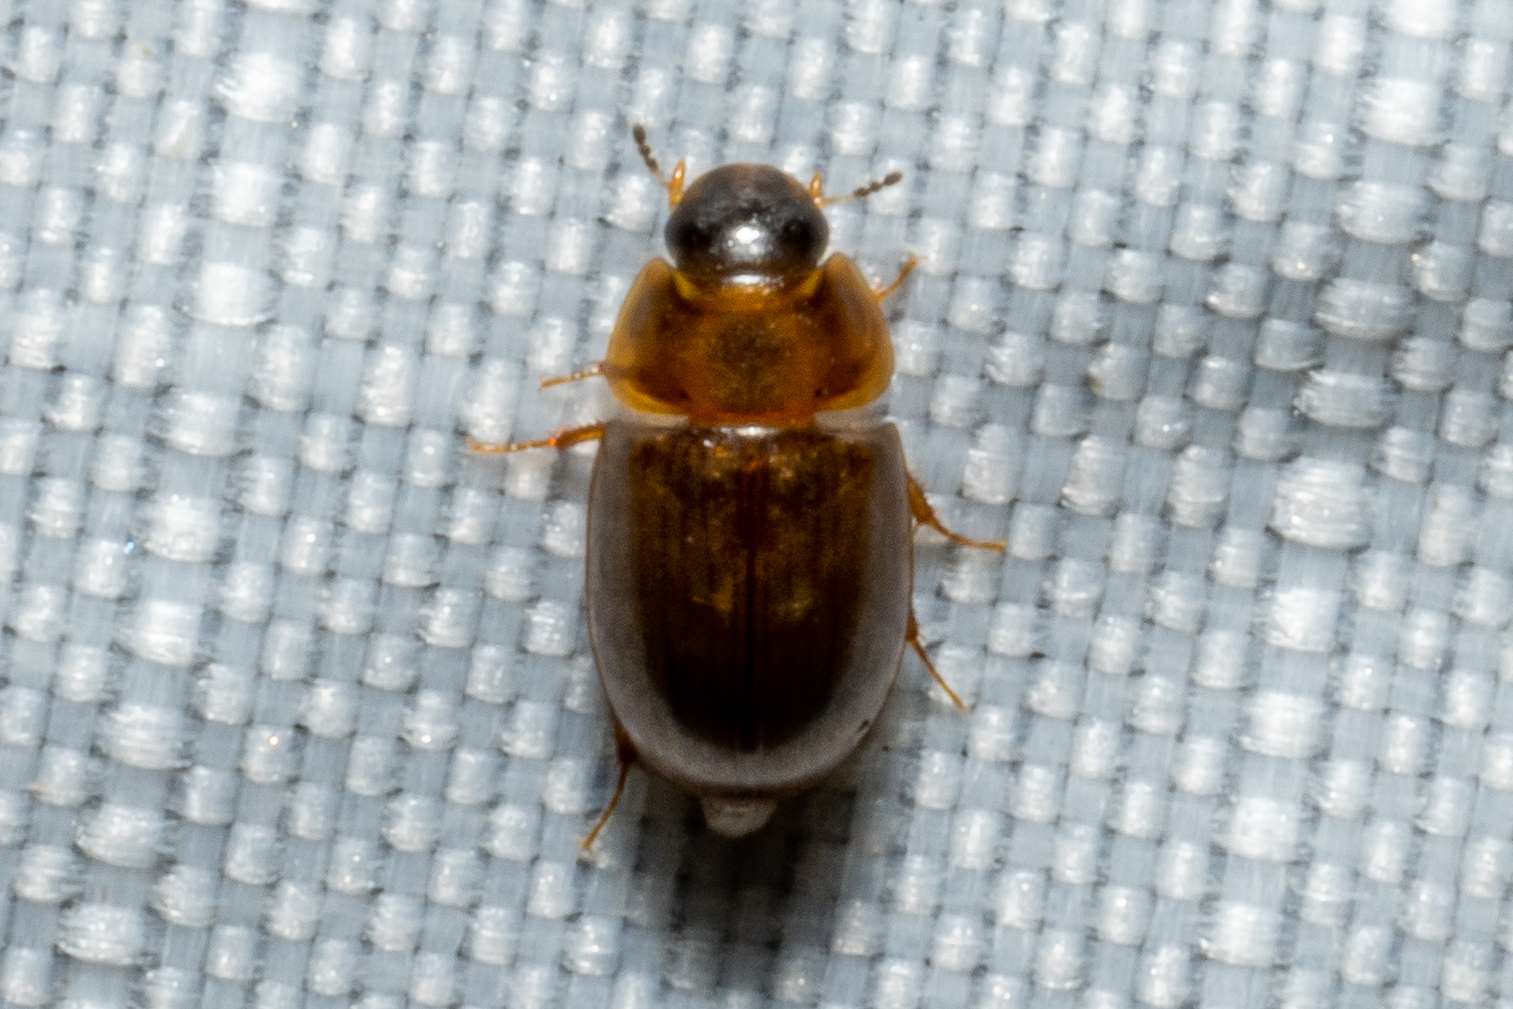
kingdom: Animalia
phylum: Arthropoda
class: Insecta
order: Coleoptera
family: Hydrophilidae
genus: Enochrus
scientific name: Enochrus
